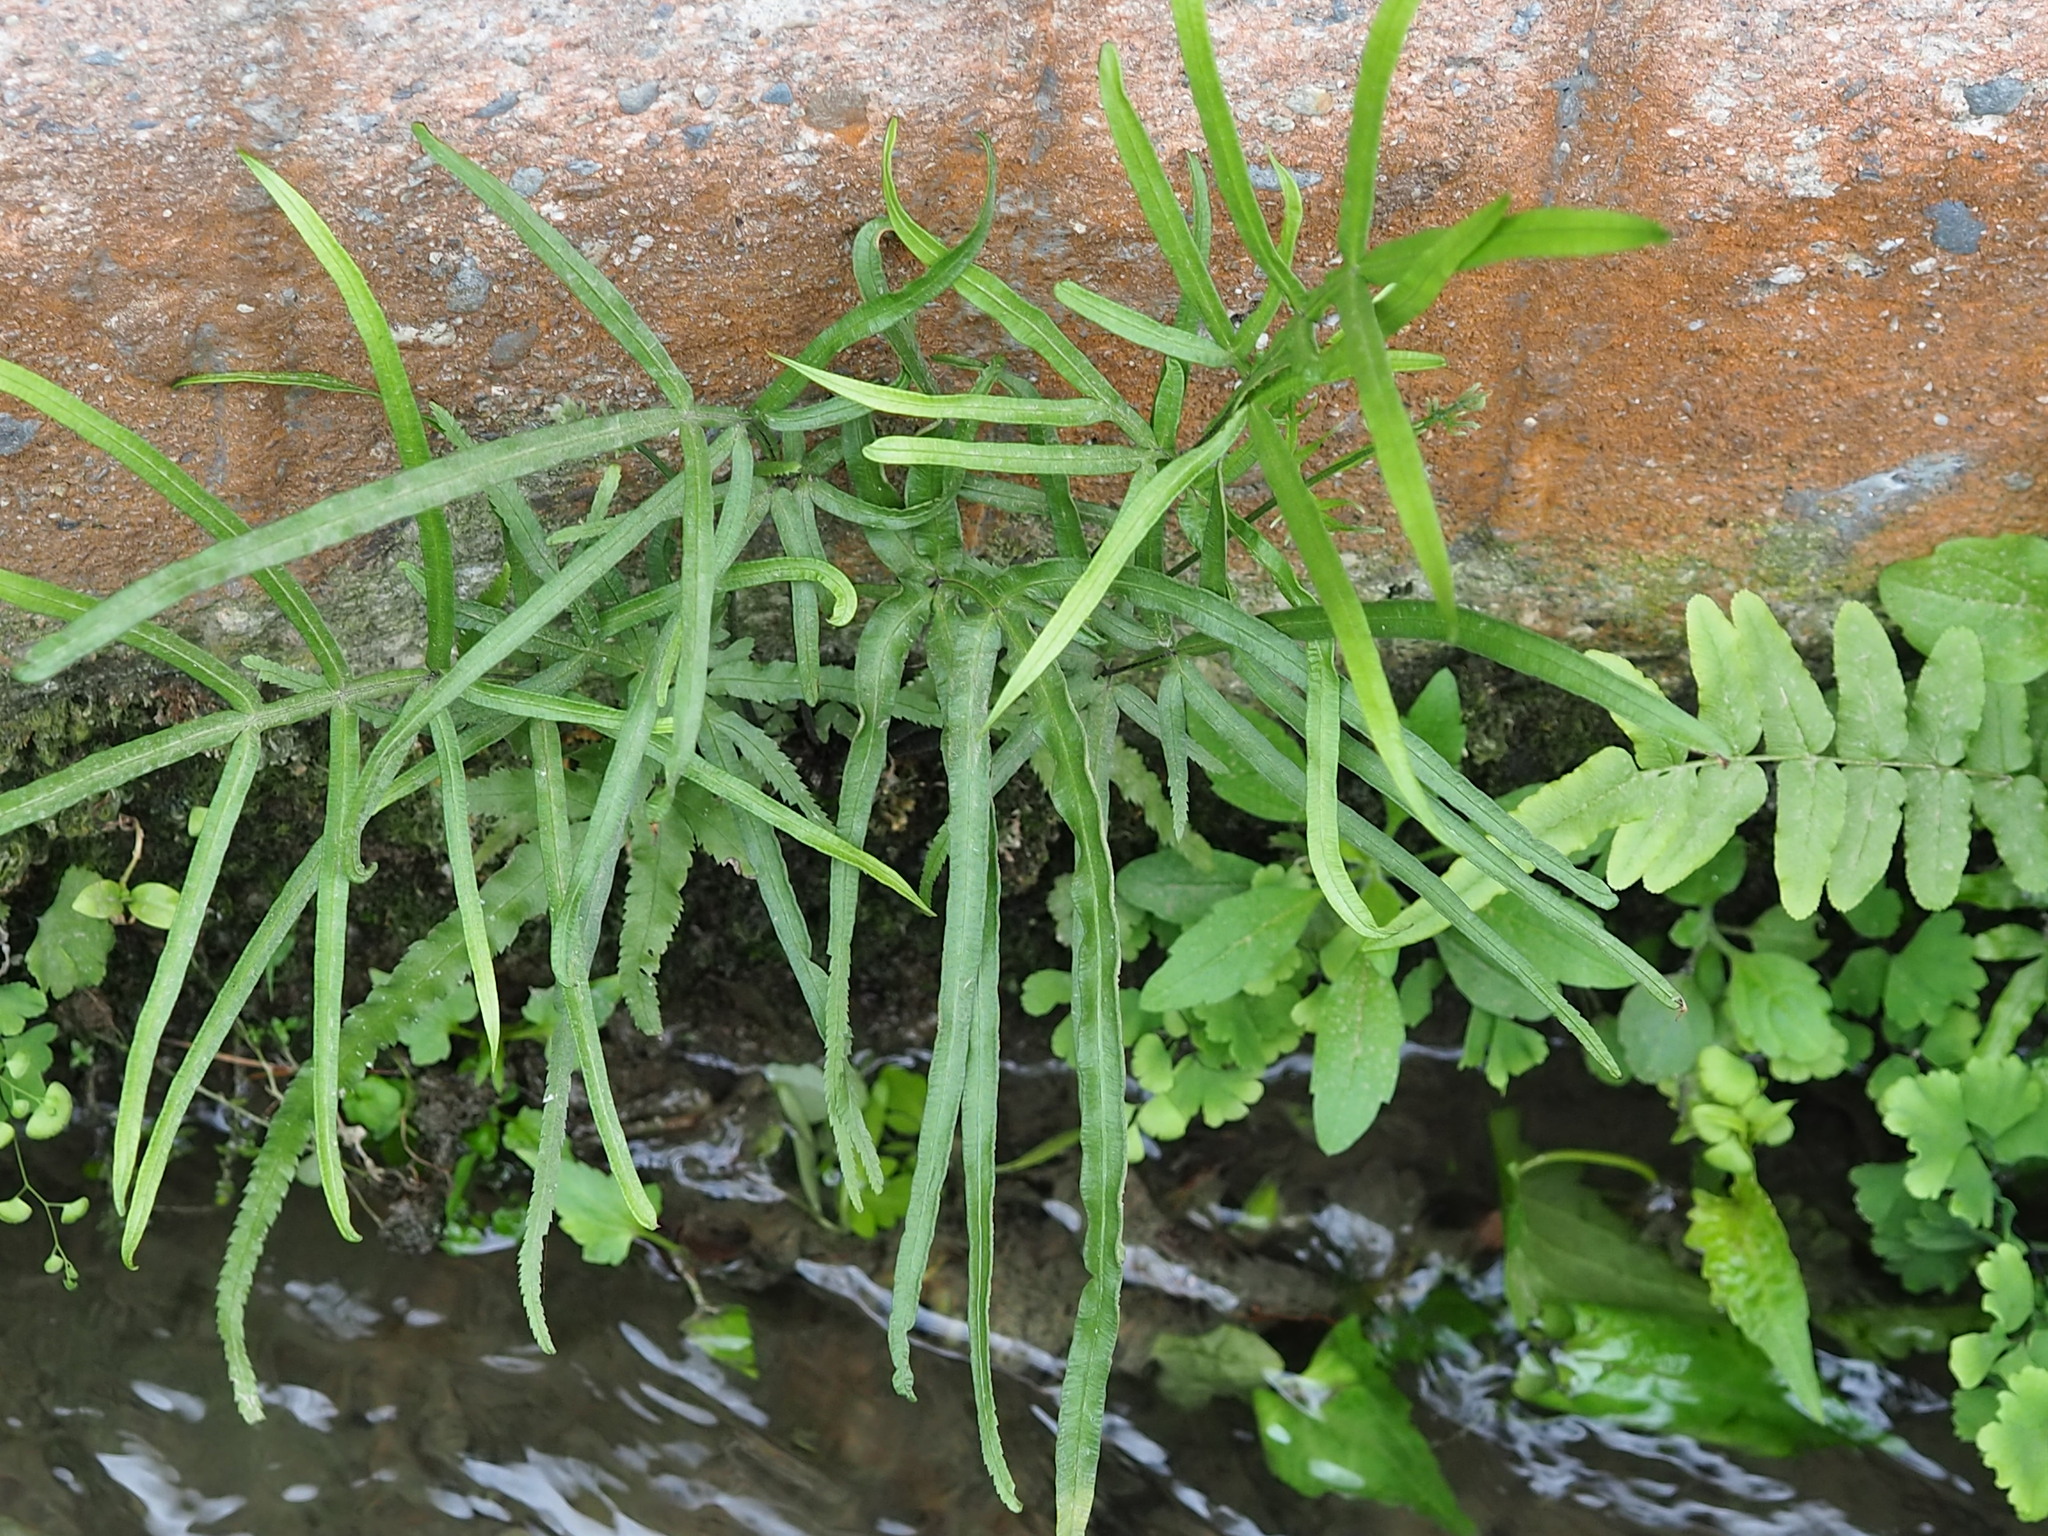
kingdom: Plantae
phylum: Tracheophyta
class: Polypodiopsida
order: Polypodiales
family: Pteridaceae
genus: Pteris
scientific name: Pteris multifida
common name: Spider brake
